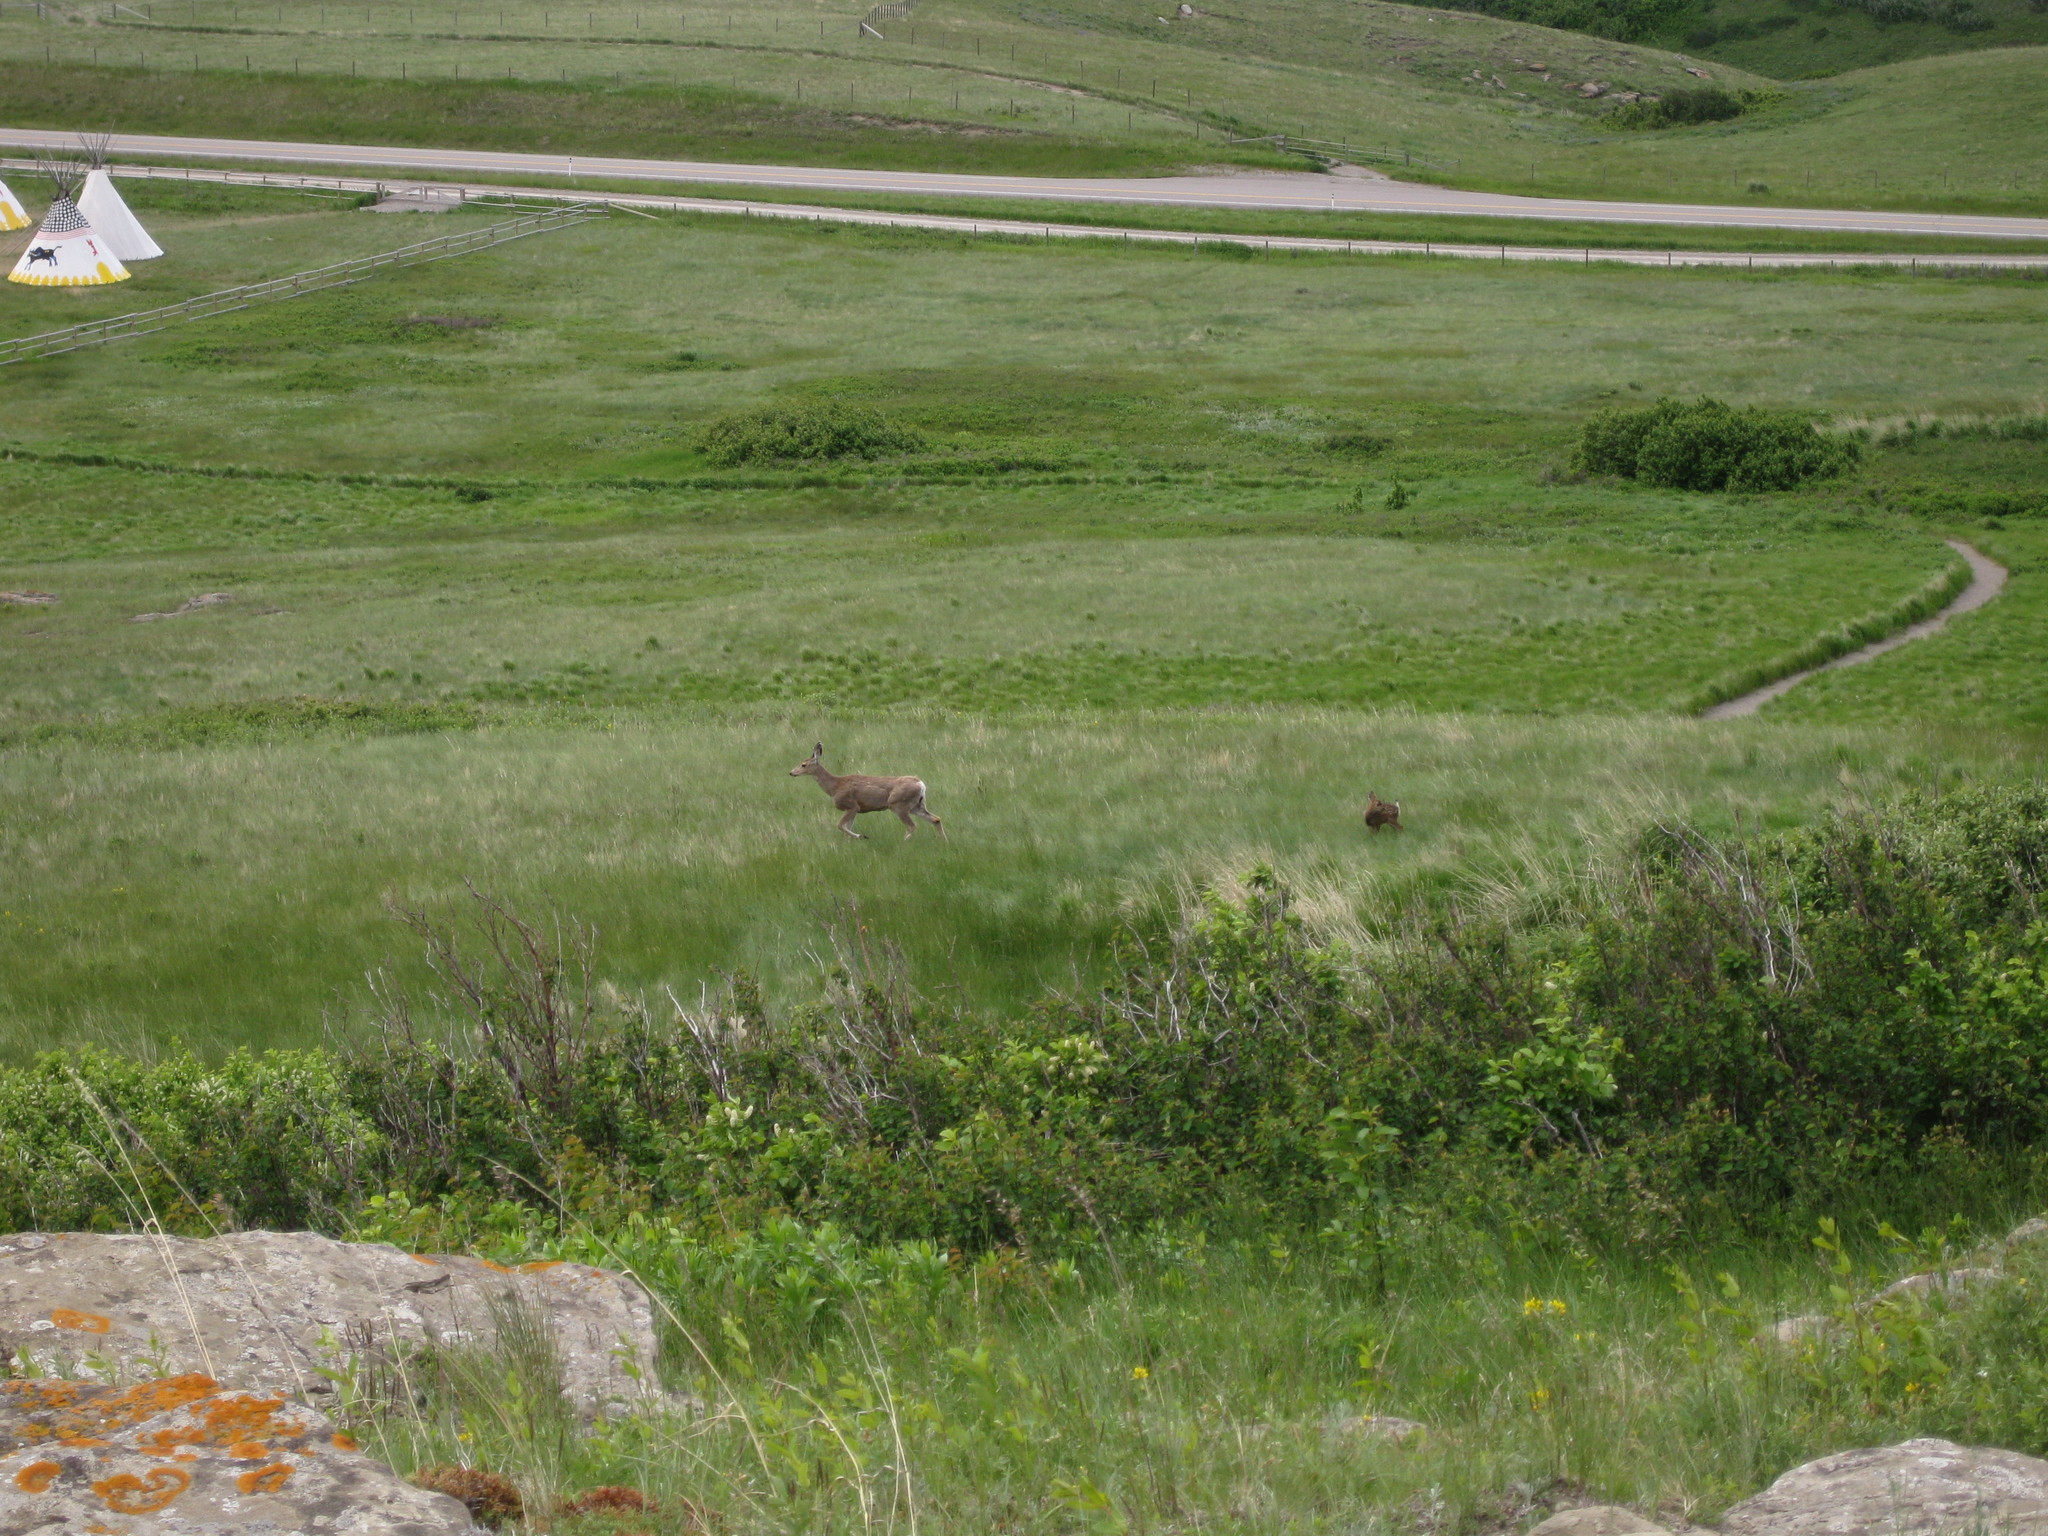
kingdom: Animalia
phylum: Chordata
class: Mammalia
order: Artiodactyla
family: Cervidae
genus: Odocoileus
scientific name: Odocoileus hemionus
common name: Mule deer
